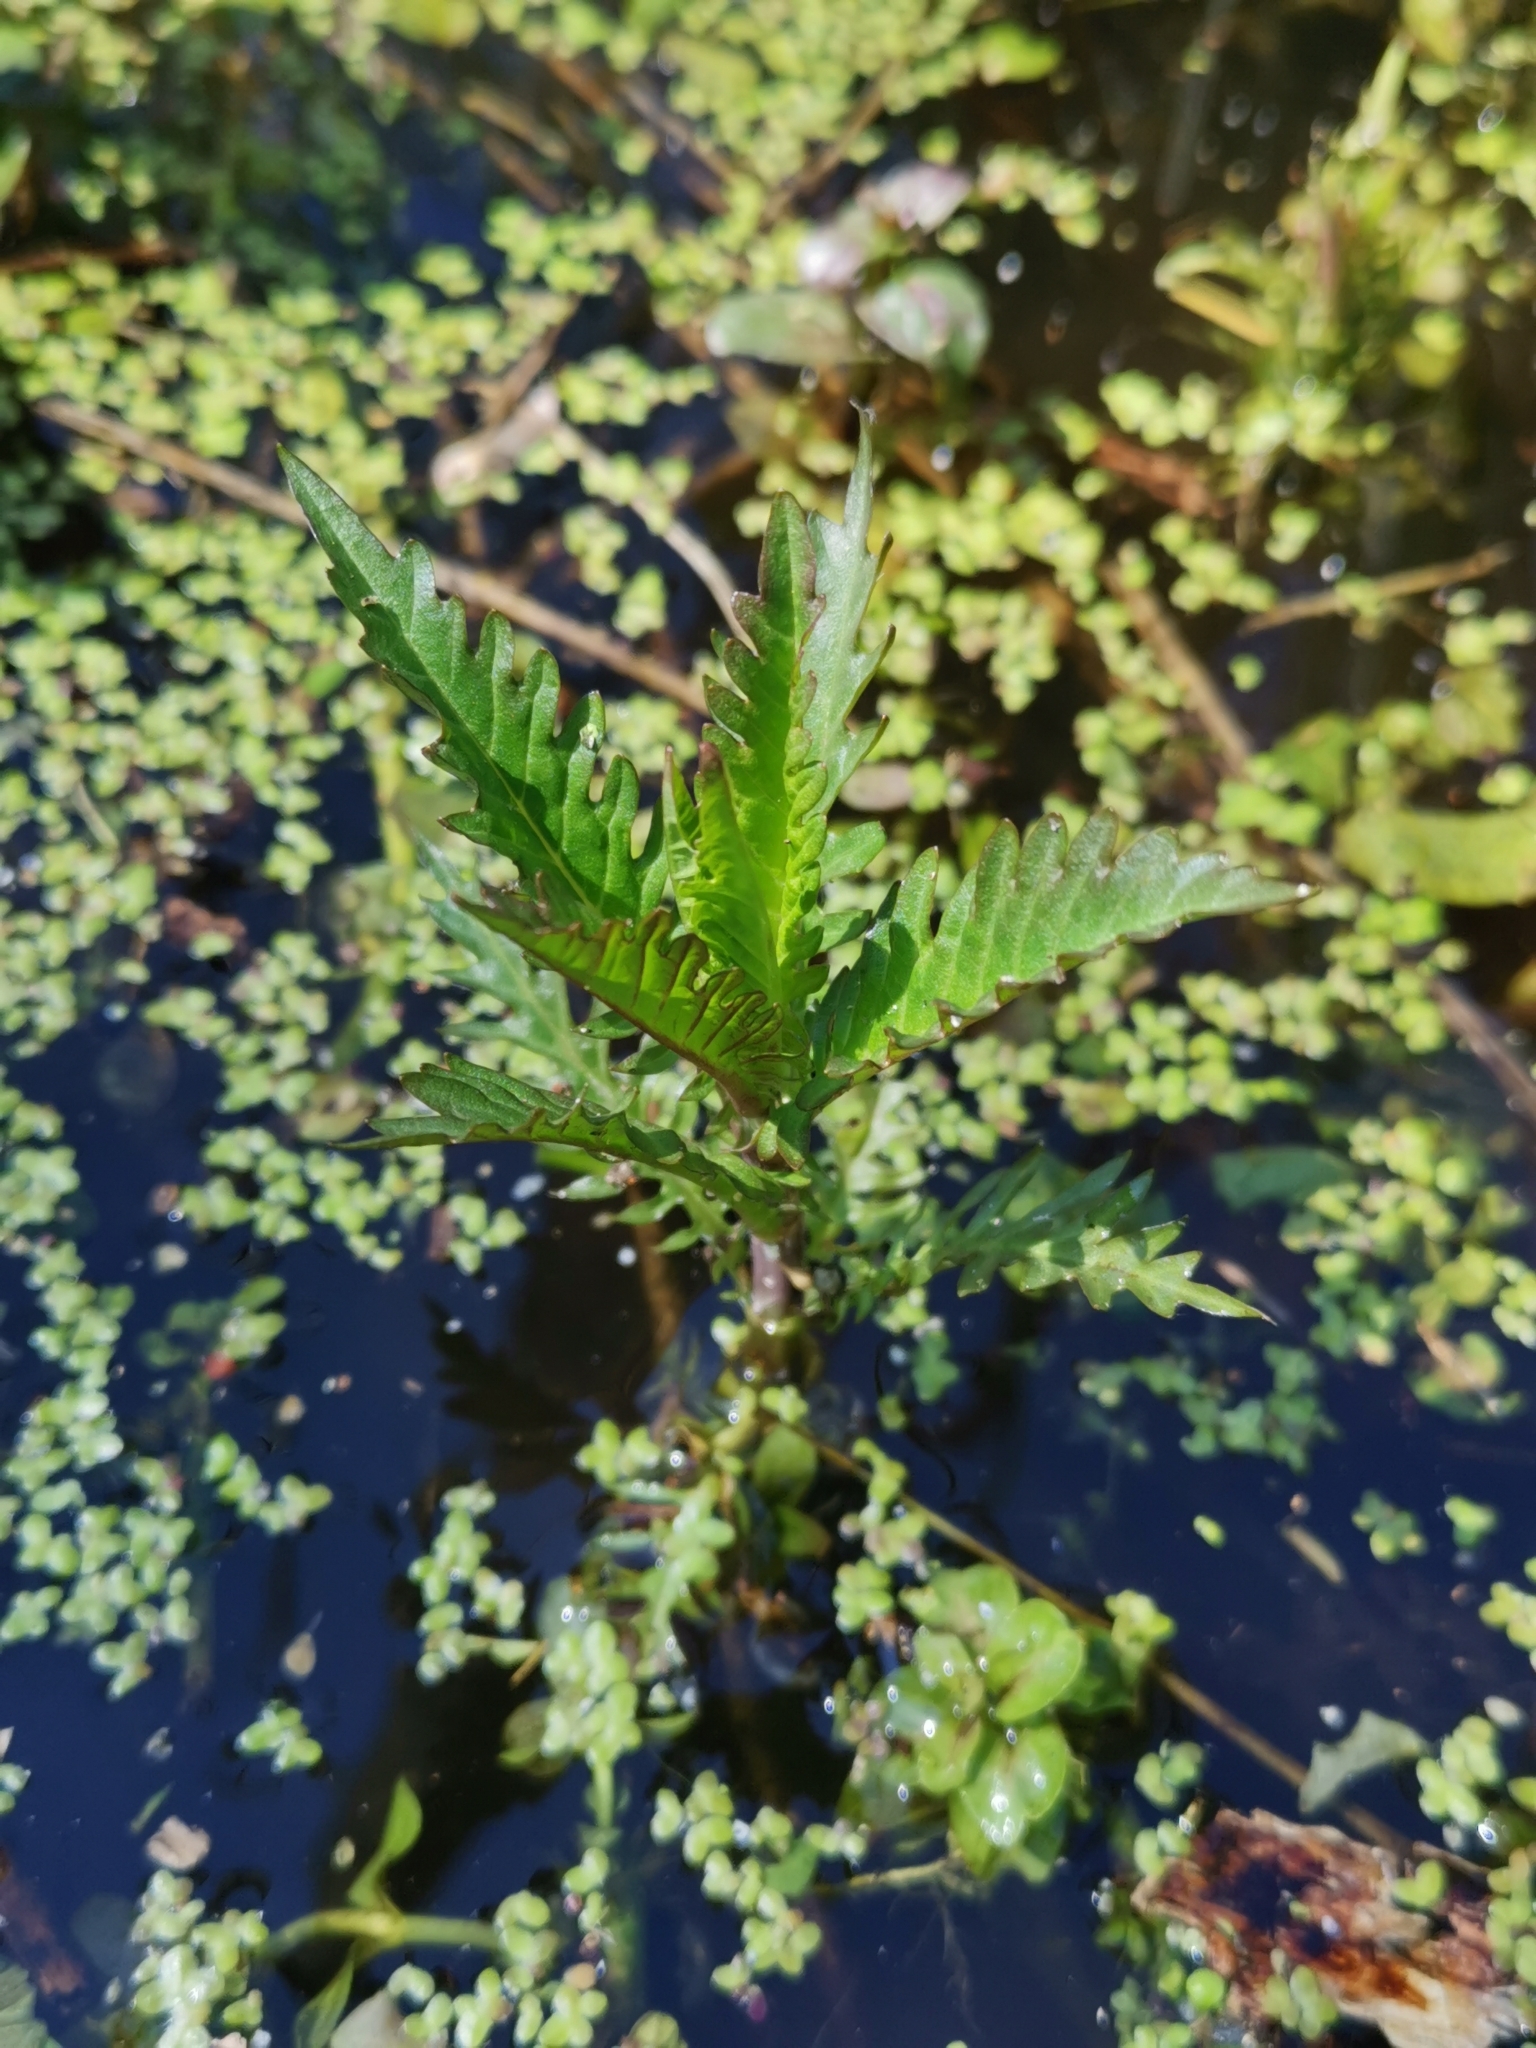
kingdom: Plantae
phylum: Tracheophyta
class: Magnoliopsida
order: Lamiales
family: Lamiaceae
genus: Lycopus
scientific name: Lycopus europaeus
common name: European bugleweed
